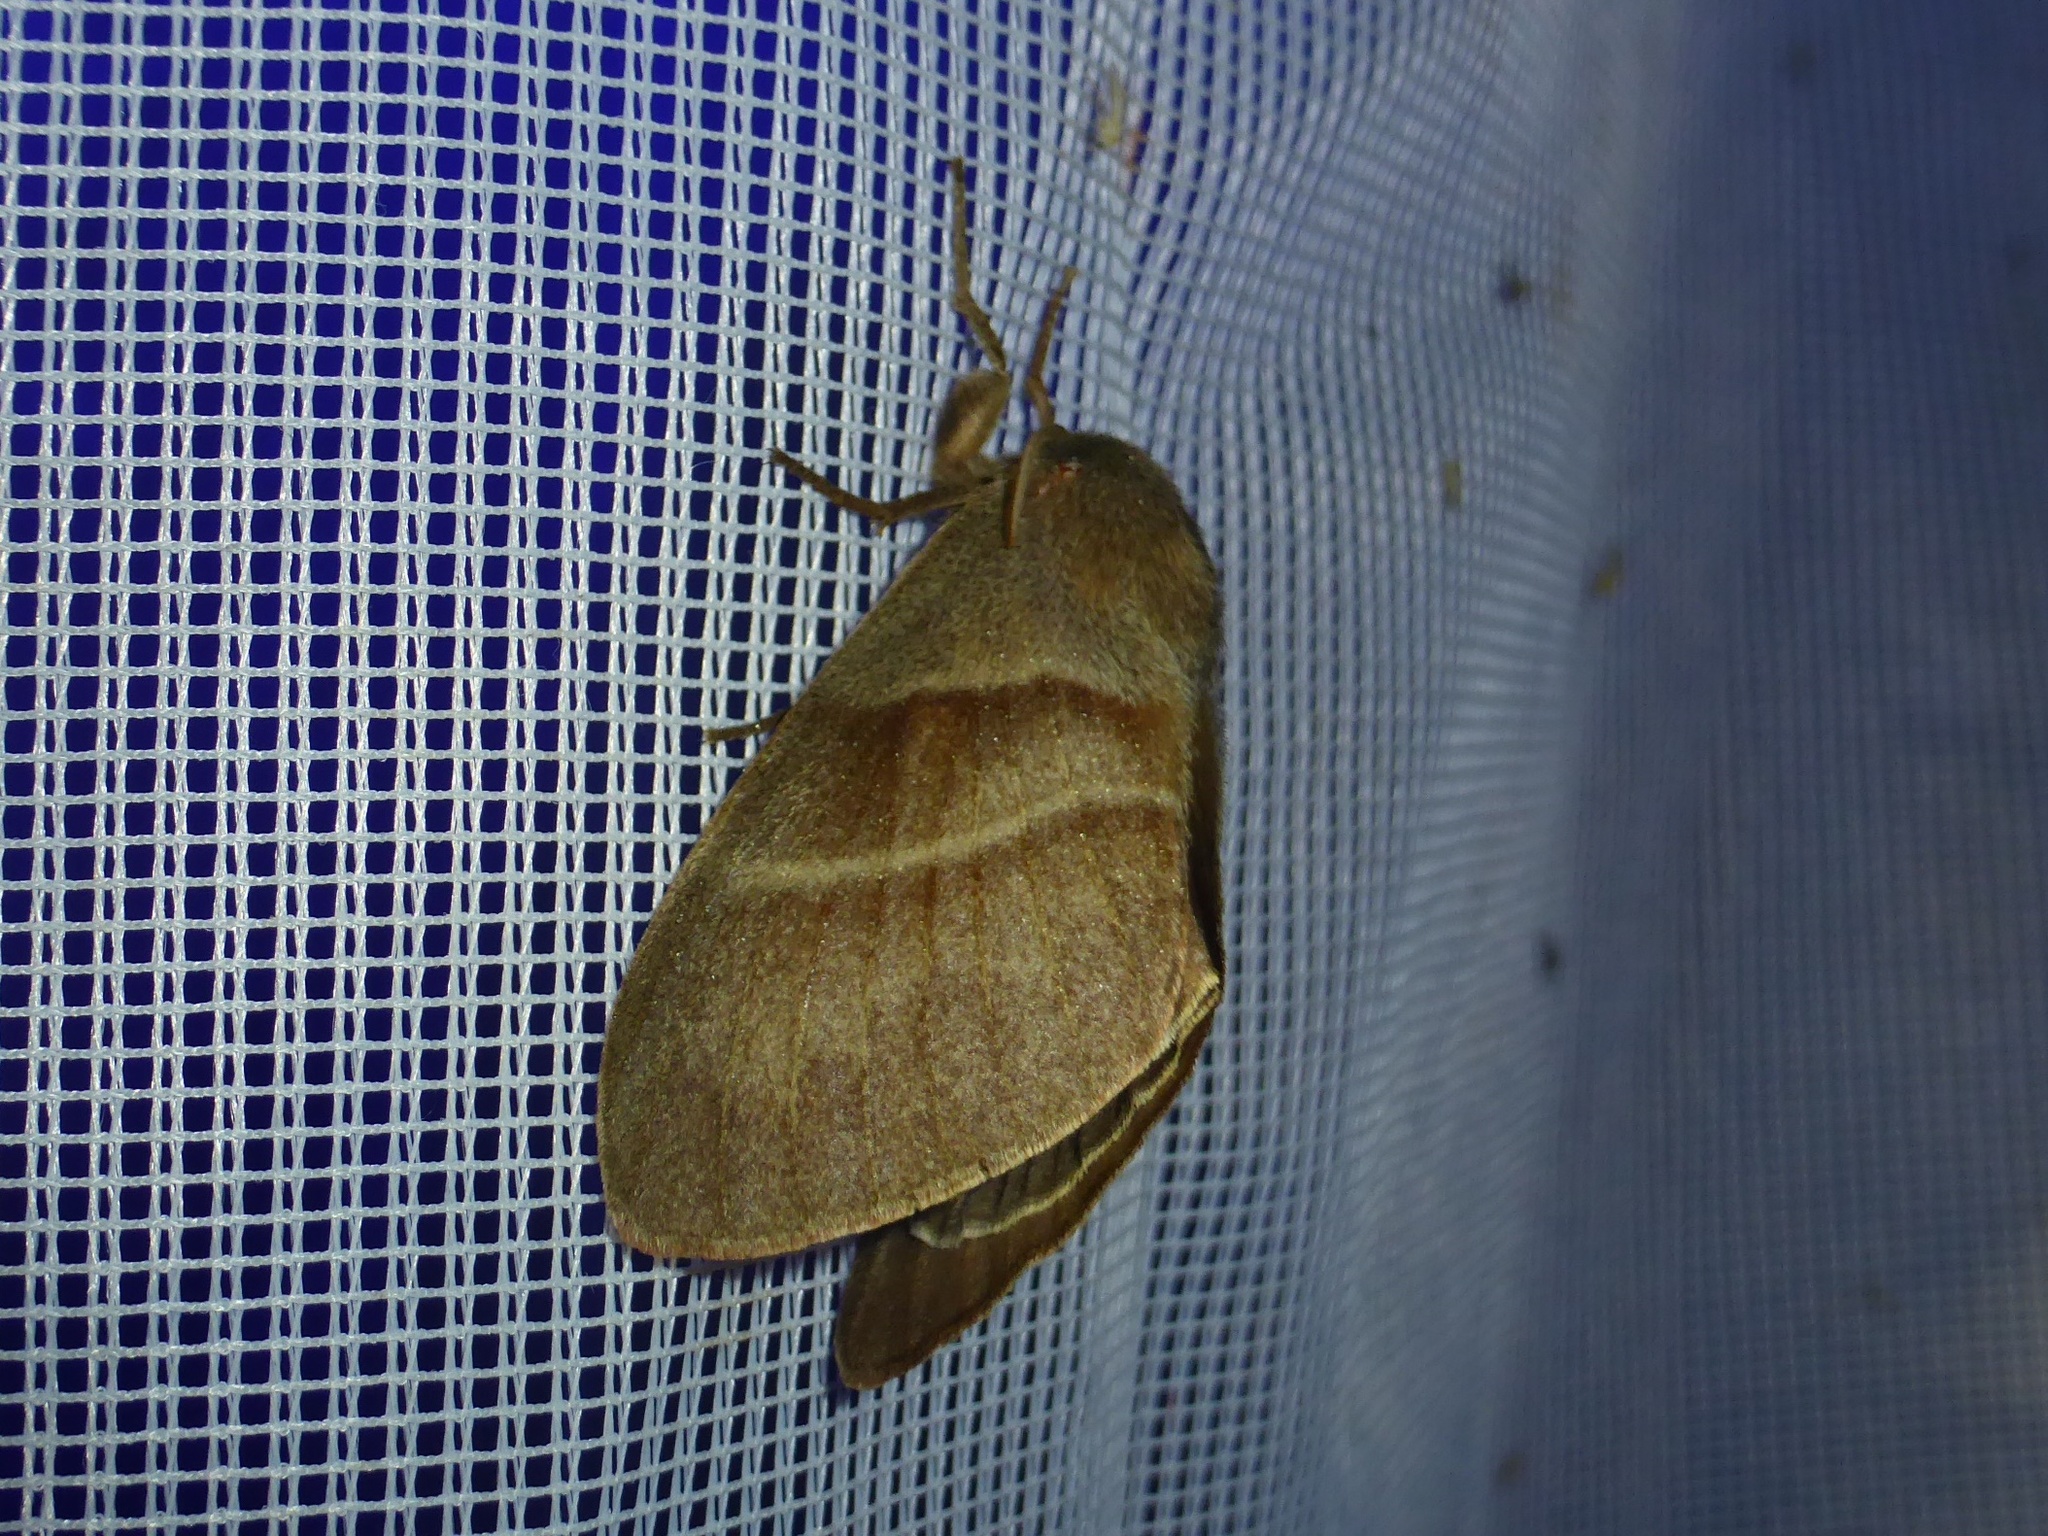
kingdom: Animalia
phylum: Arthropoda
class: Insecta
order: Lepidoptera
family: Lasiocampidae
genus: Macrothylacia
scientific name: Macrothylacia rubi
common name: Fox moth
